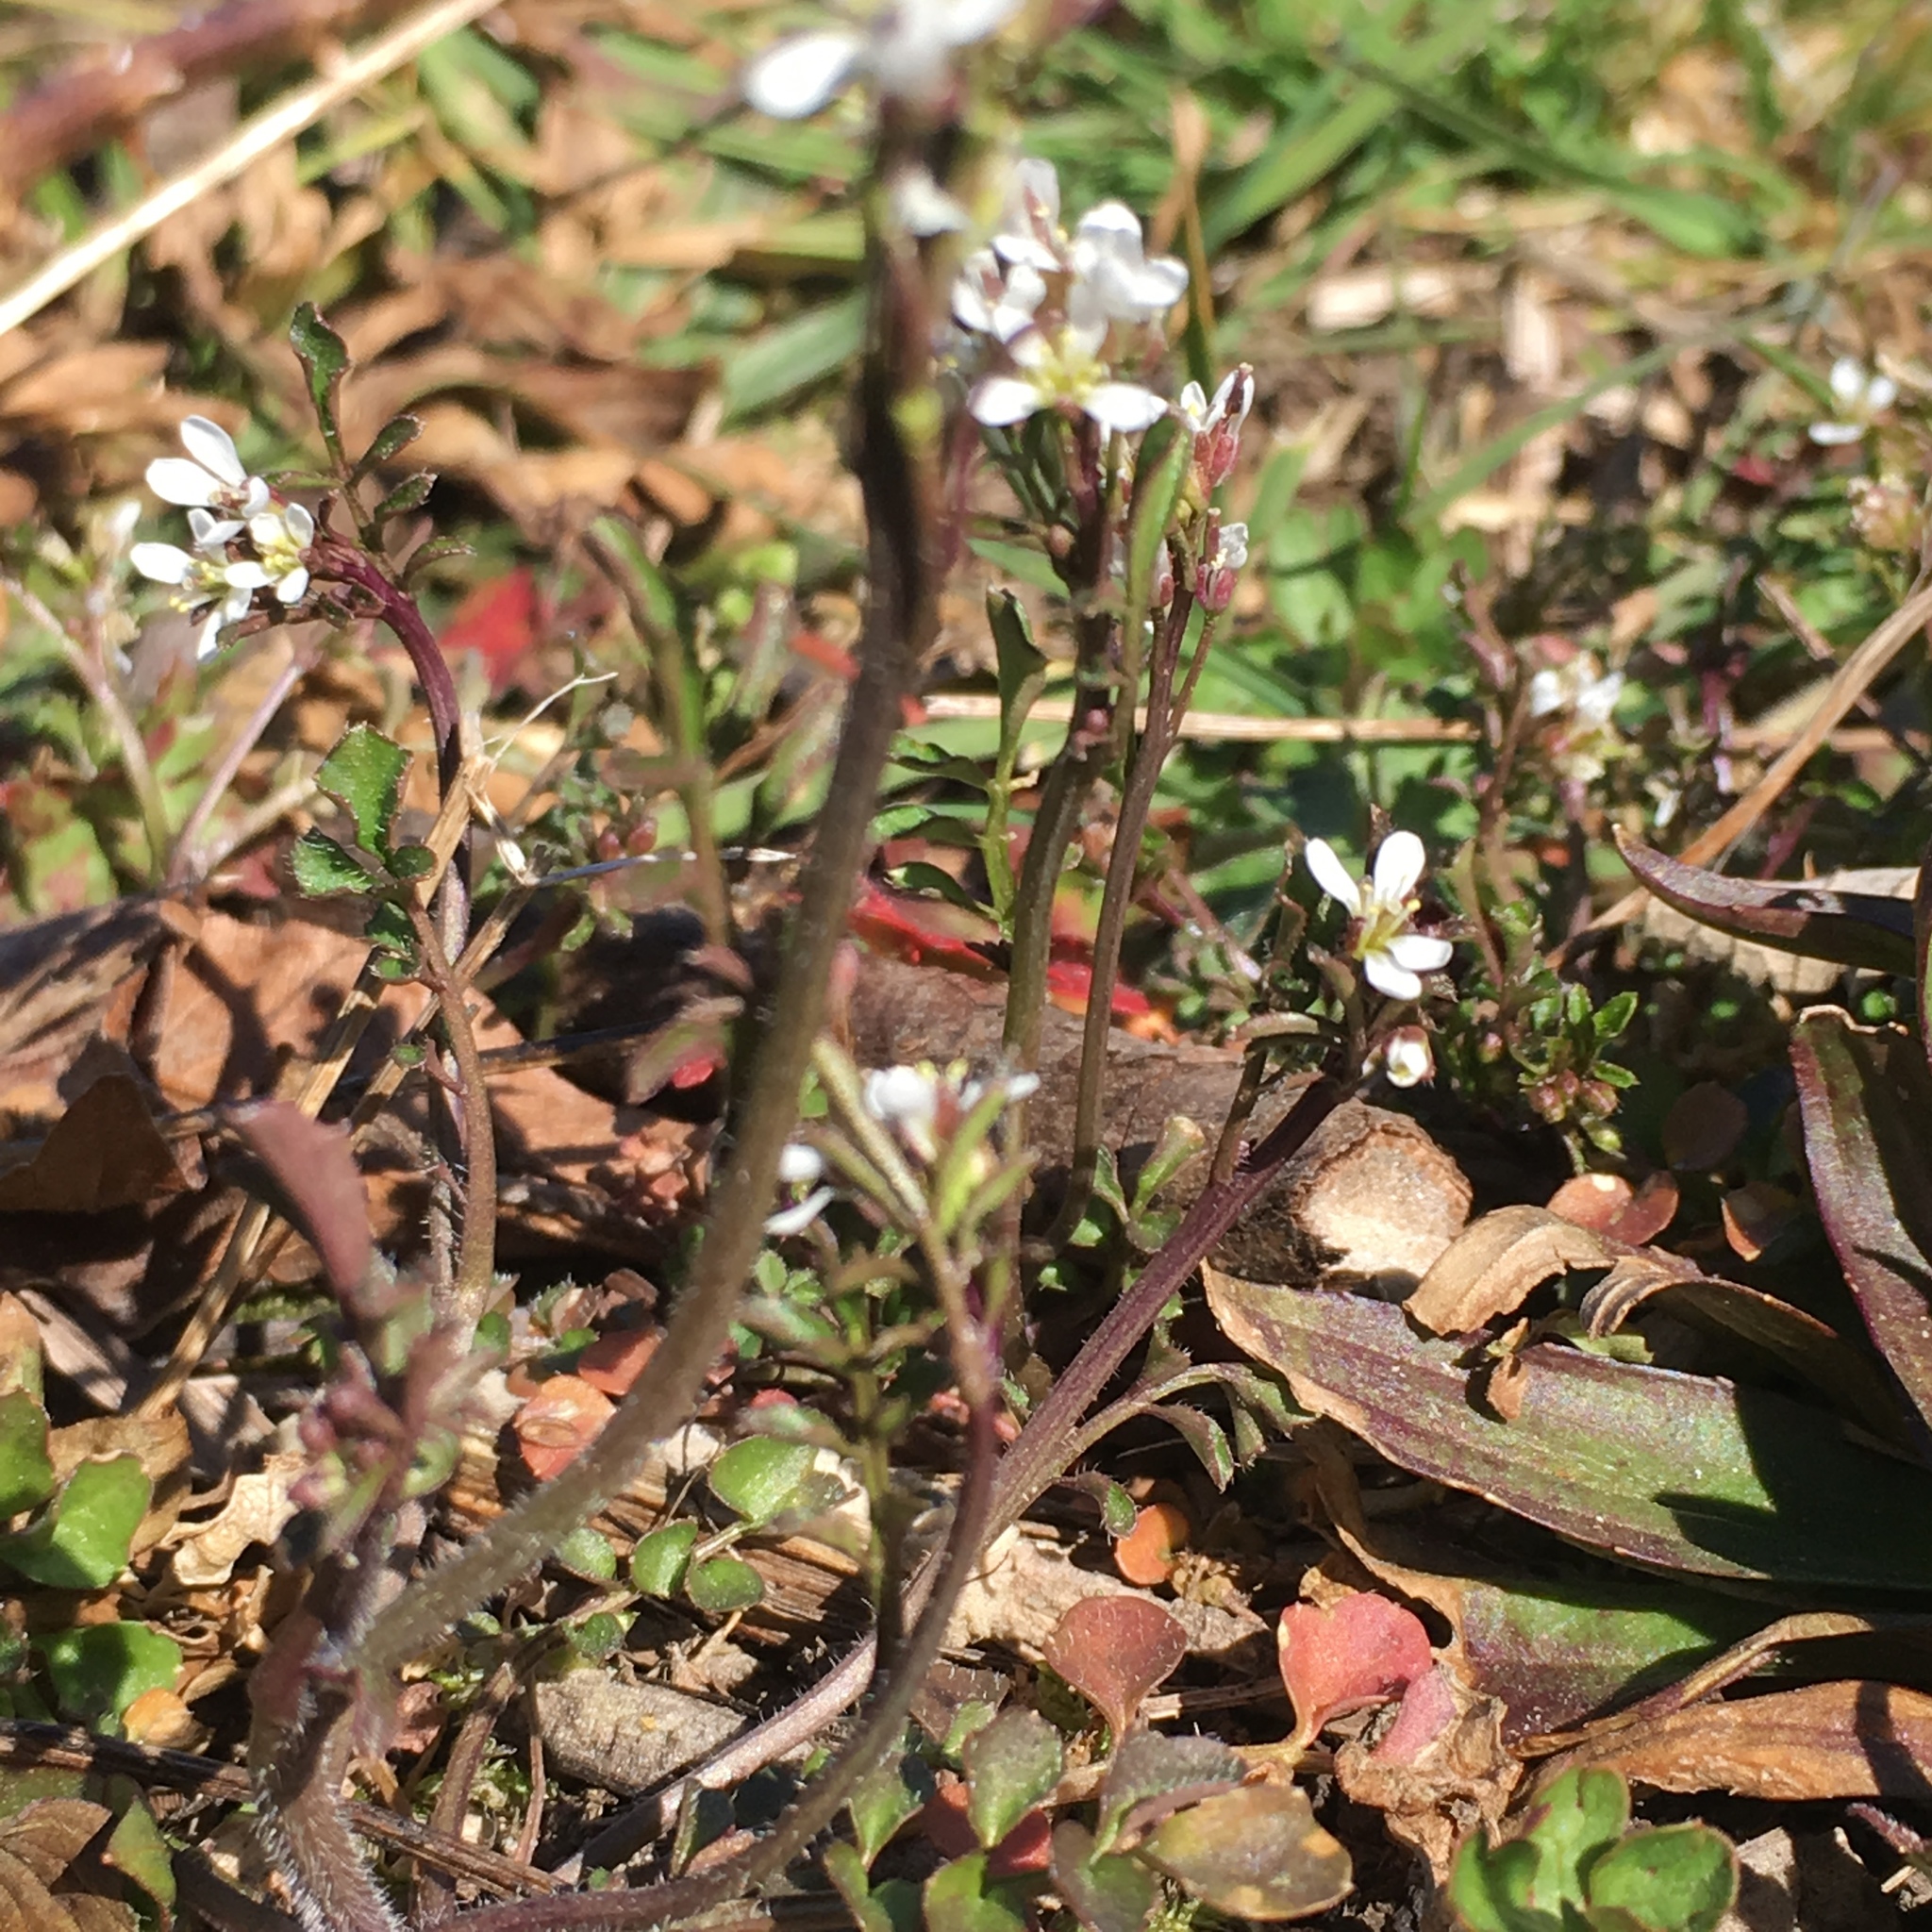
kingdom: Plantae
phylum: Tracheophyta
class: Magnoliopsida
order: Brassicales
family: Brassicaceae
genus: Cardamine
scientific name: Cardamine hirsuta
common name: Hairy bittercress
